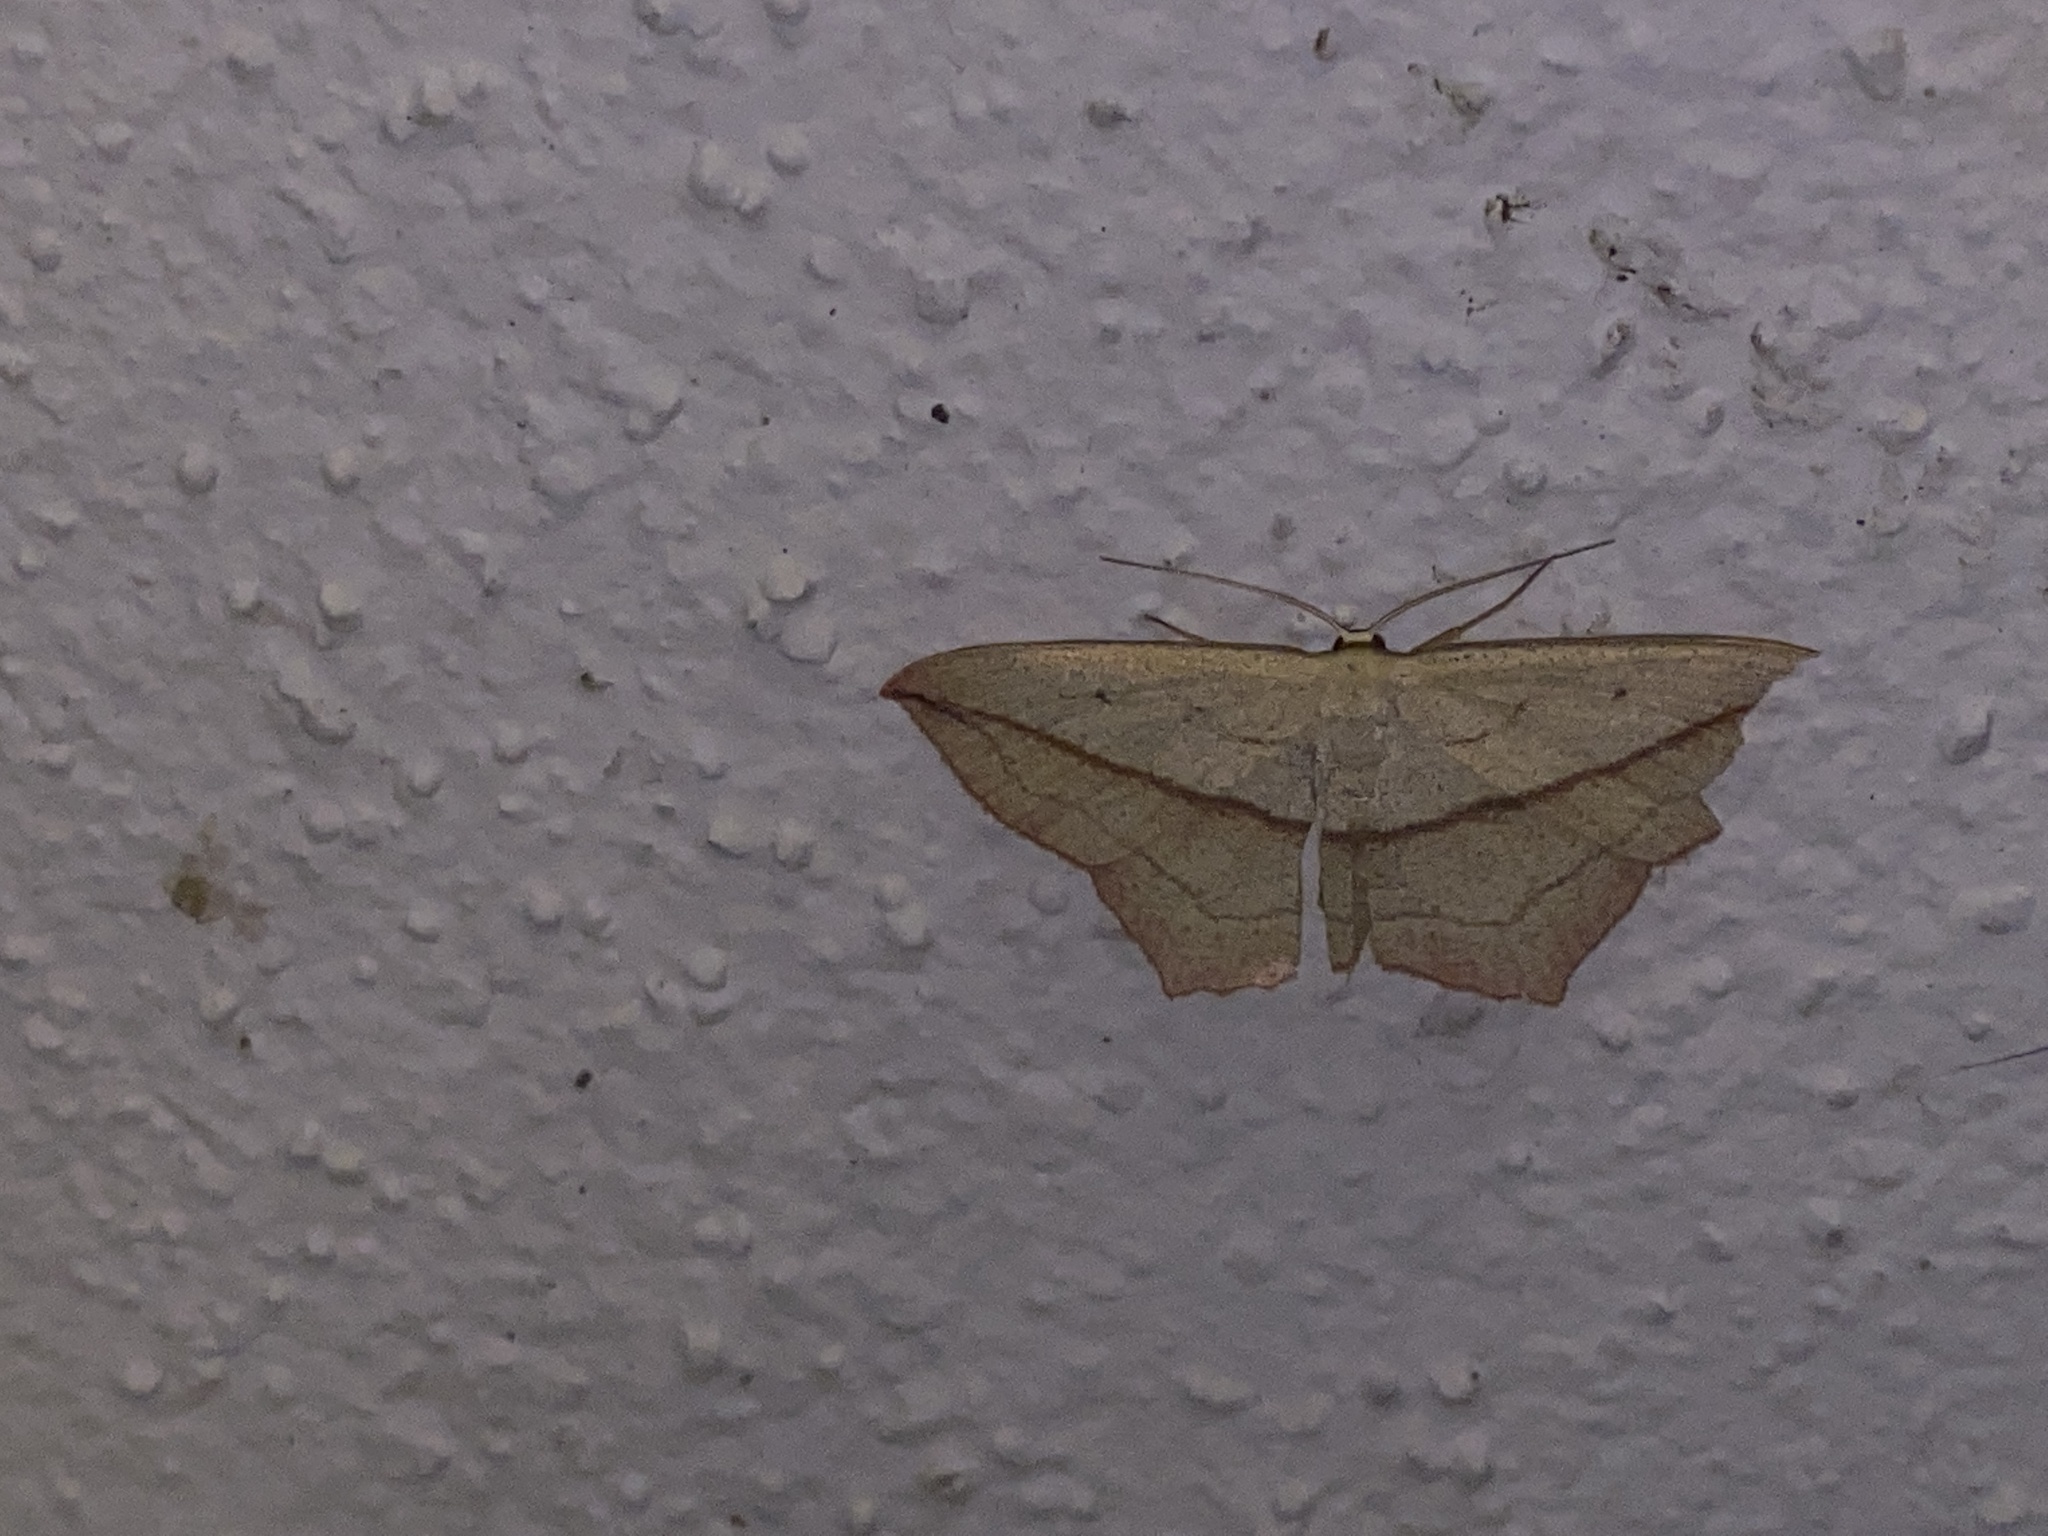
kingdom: Animalia
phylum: Arthropoda
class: Insecta
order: Lepidoptera
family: Geometridae
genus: Timandra
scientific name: Timandra comae
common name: Blood-vein
